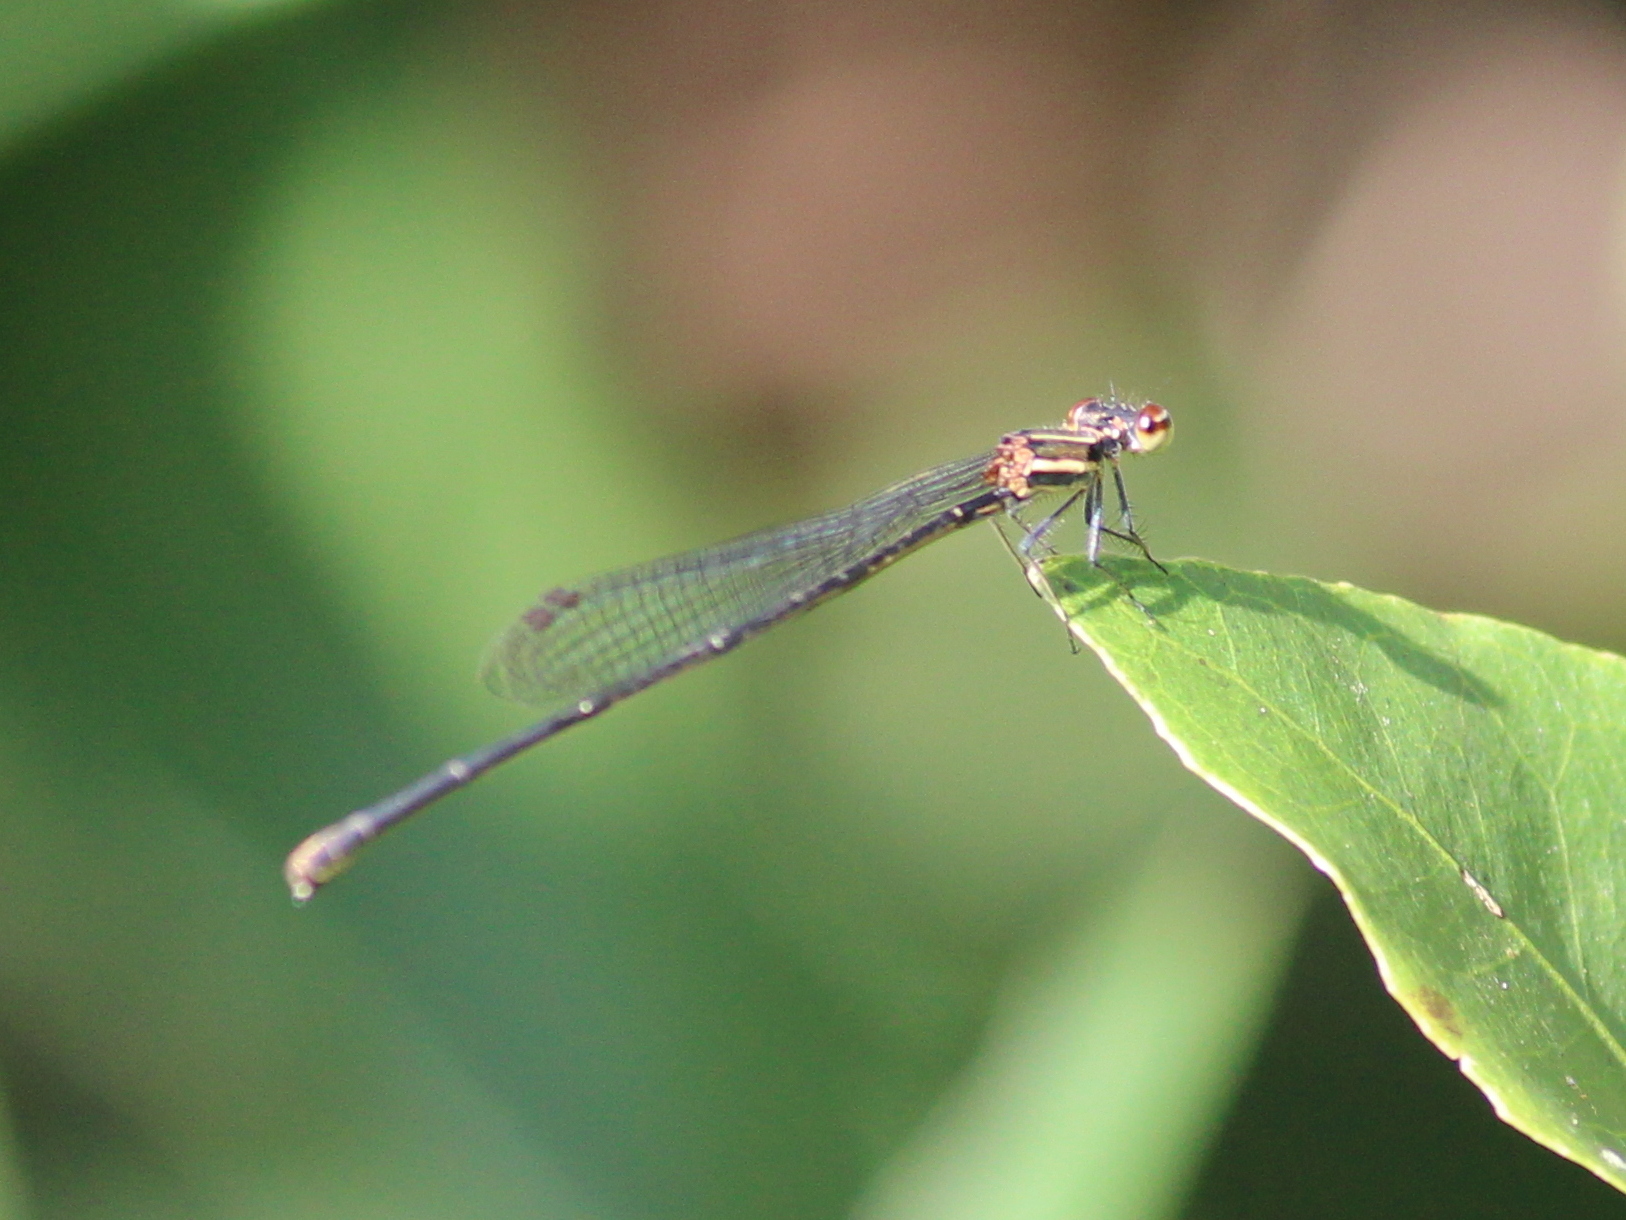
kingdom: Animalia
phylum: Arthropoda
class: Insecta
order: Odonata
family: Platycnemididae
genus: Prodasineura
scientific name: Prodasineura verticalis
